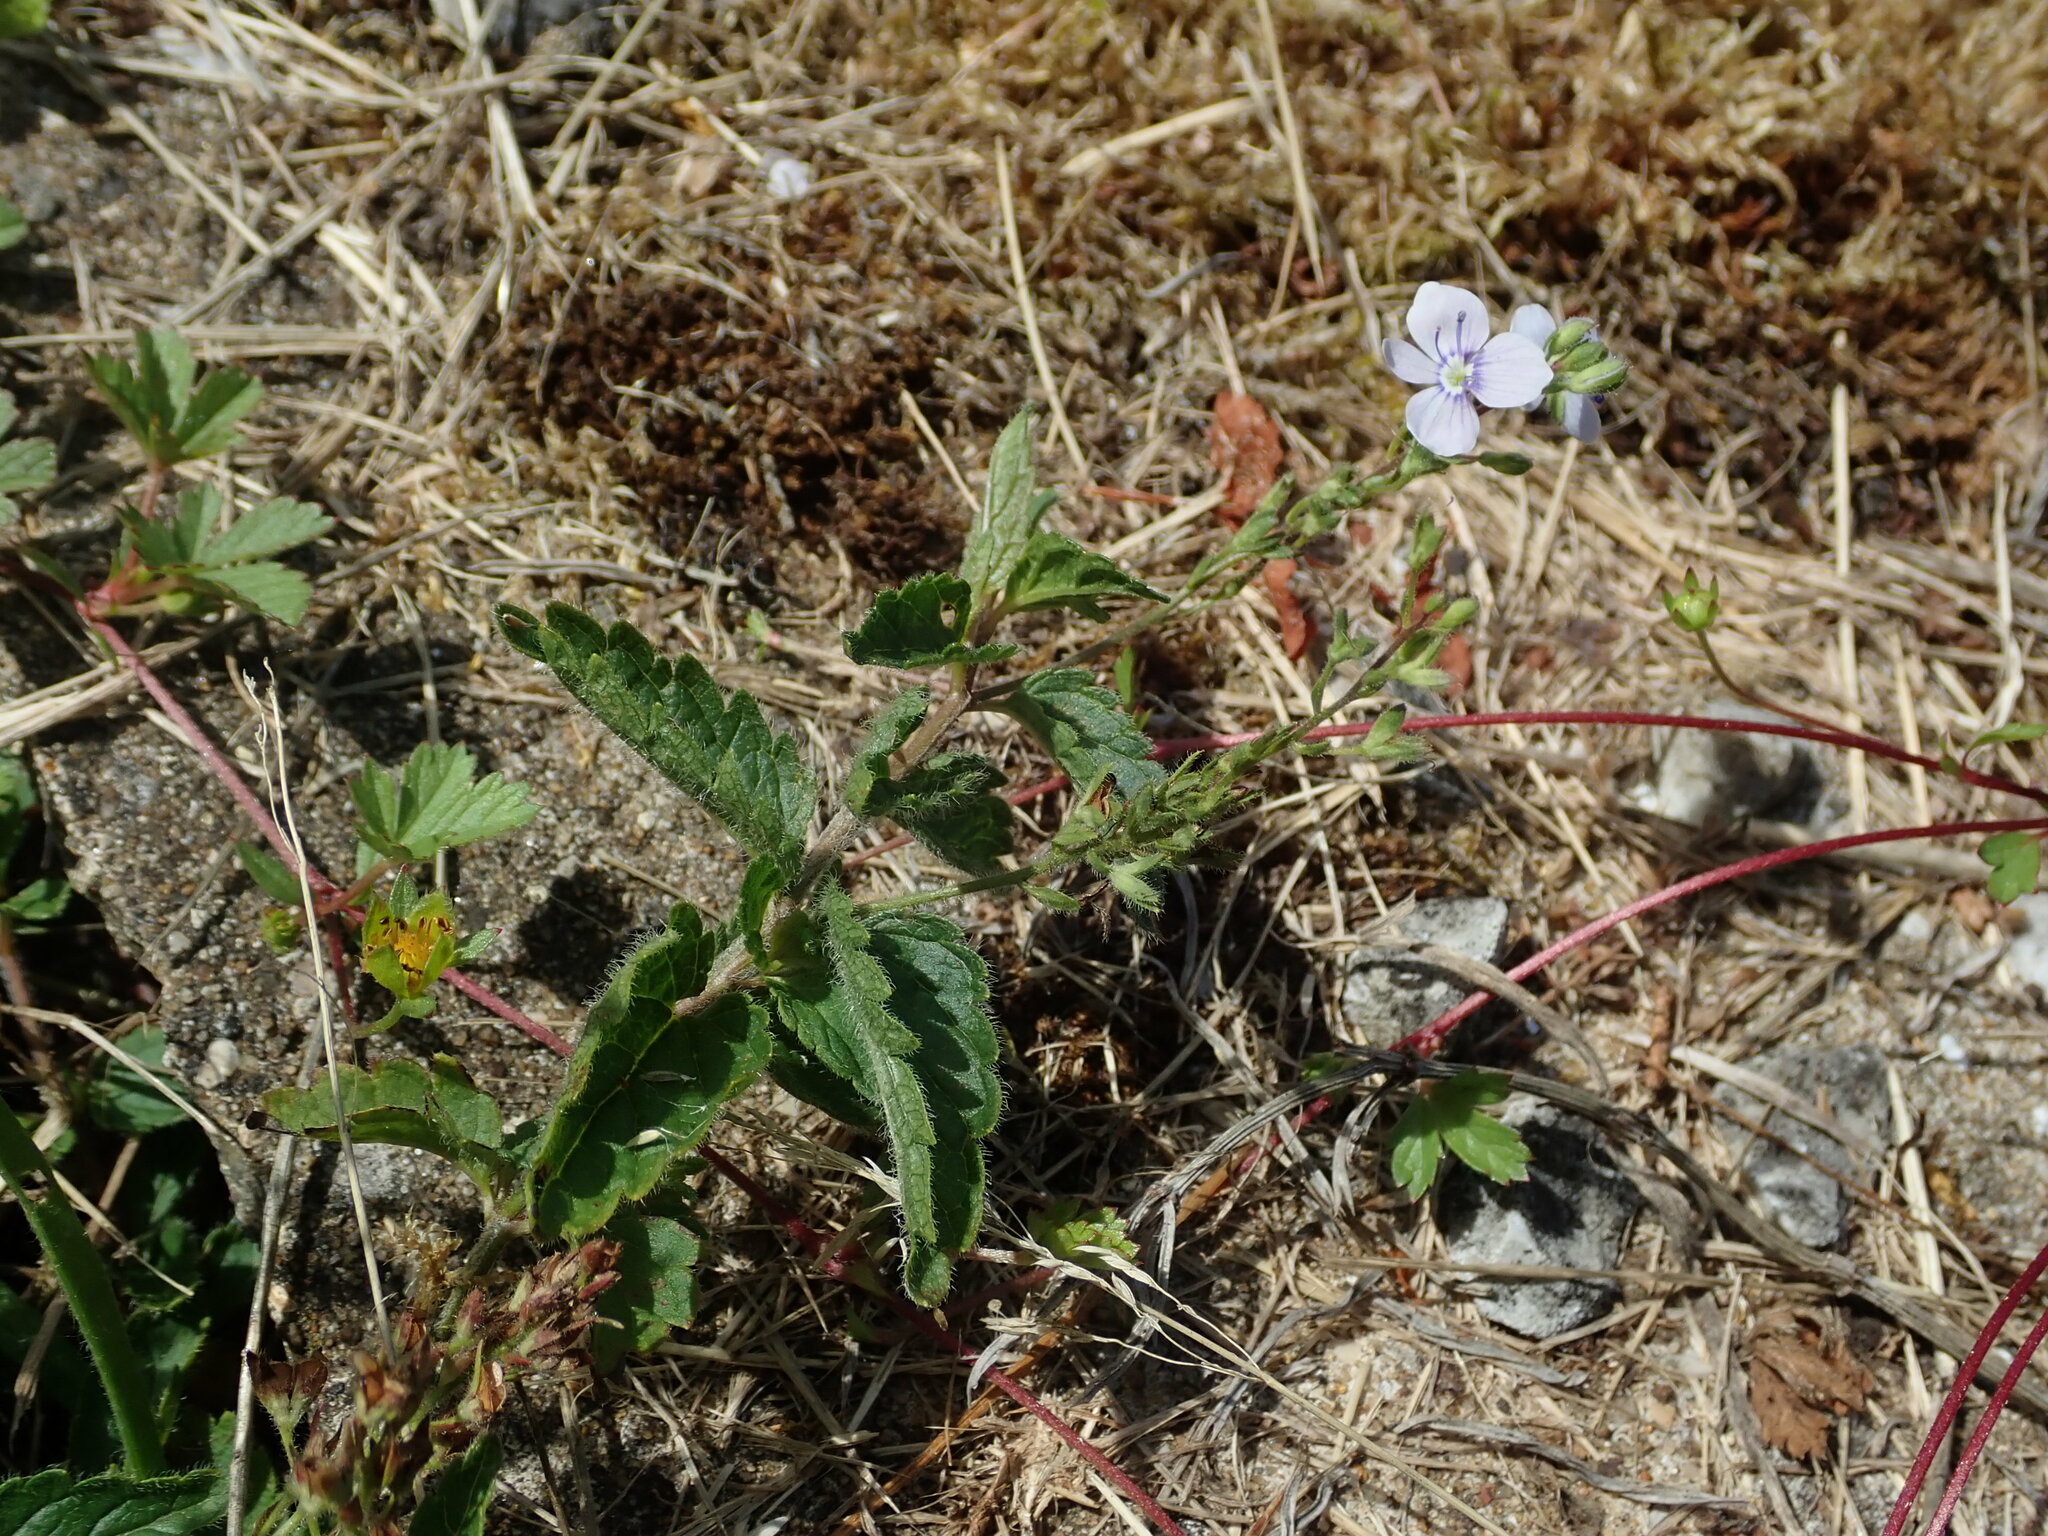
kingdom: Plantae
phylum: Tracheophyta
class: Magnoliopsida
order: Lamiales
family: Plantaginaceae
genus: Veronica
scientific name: Veronica chamaedrys
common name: Germander speedwell
